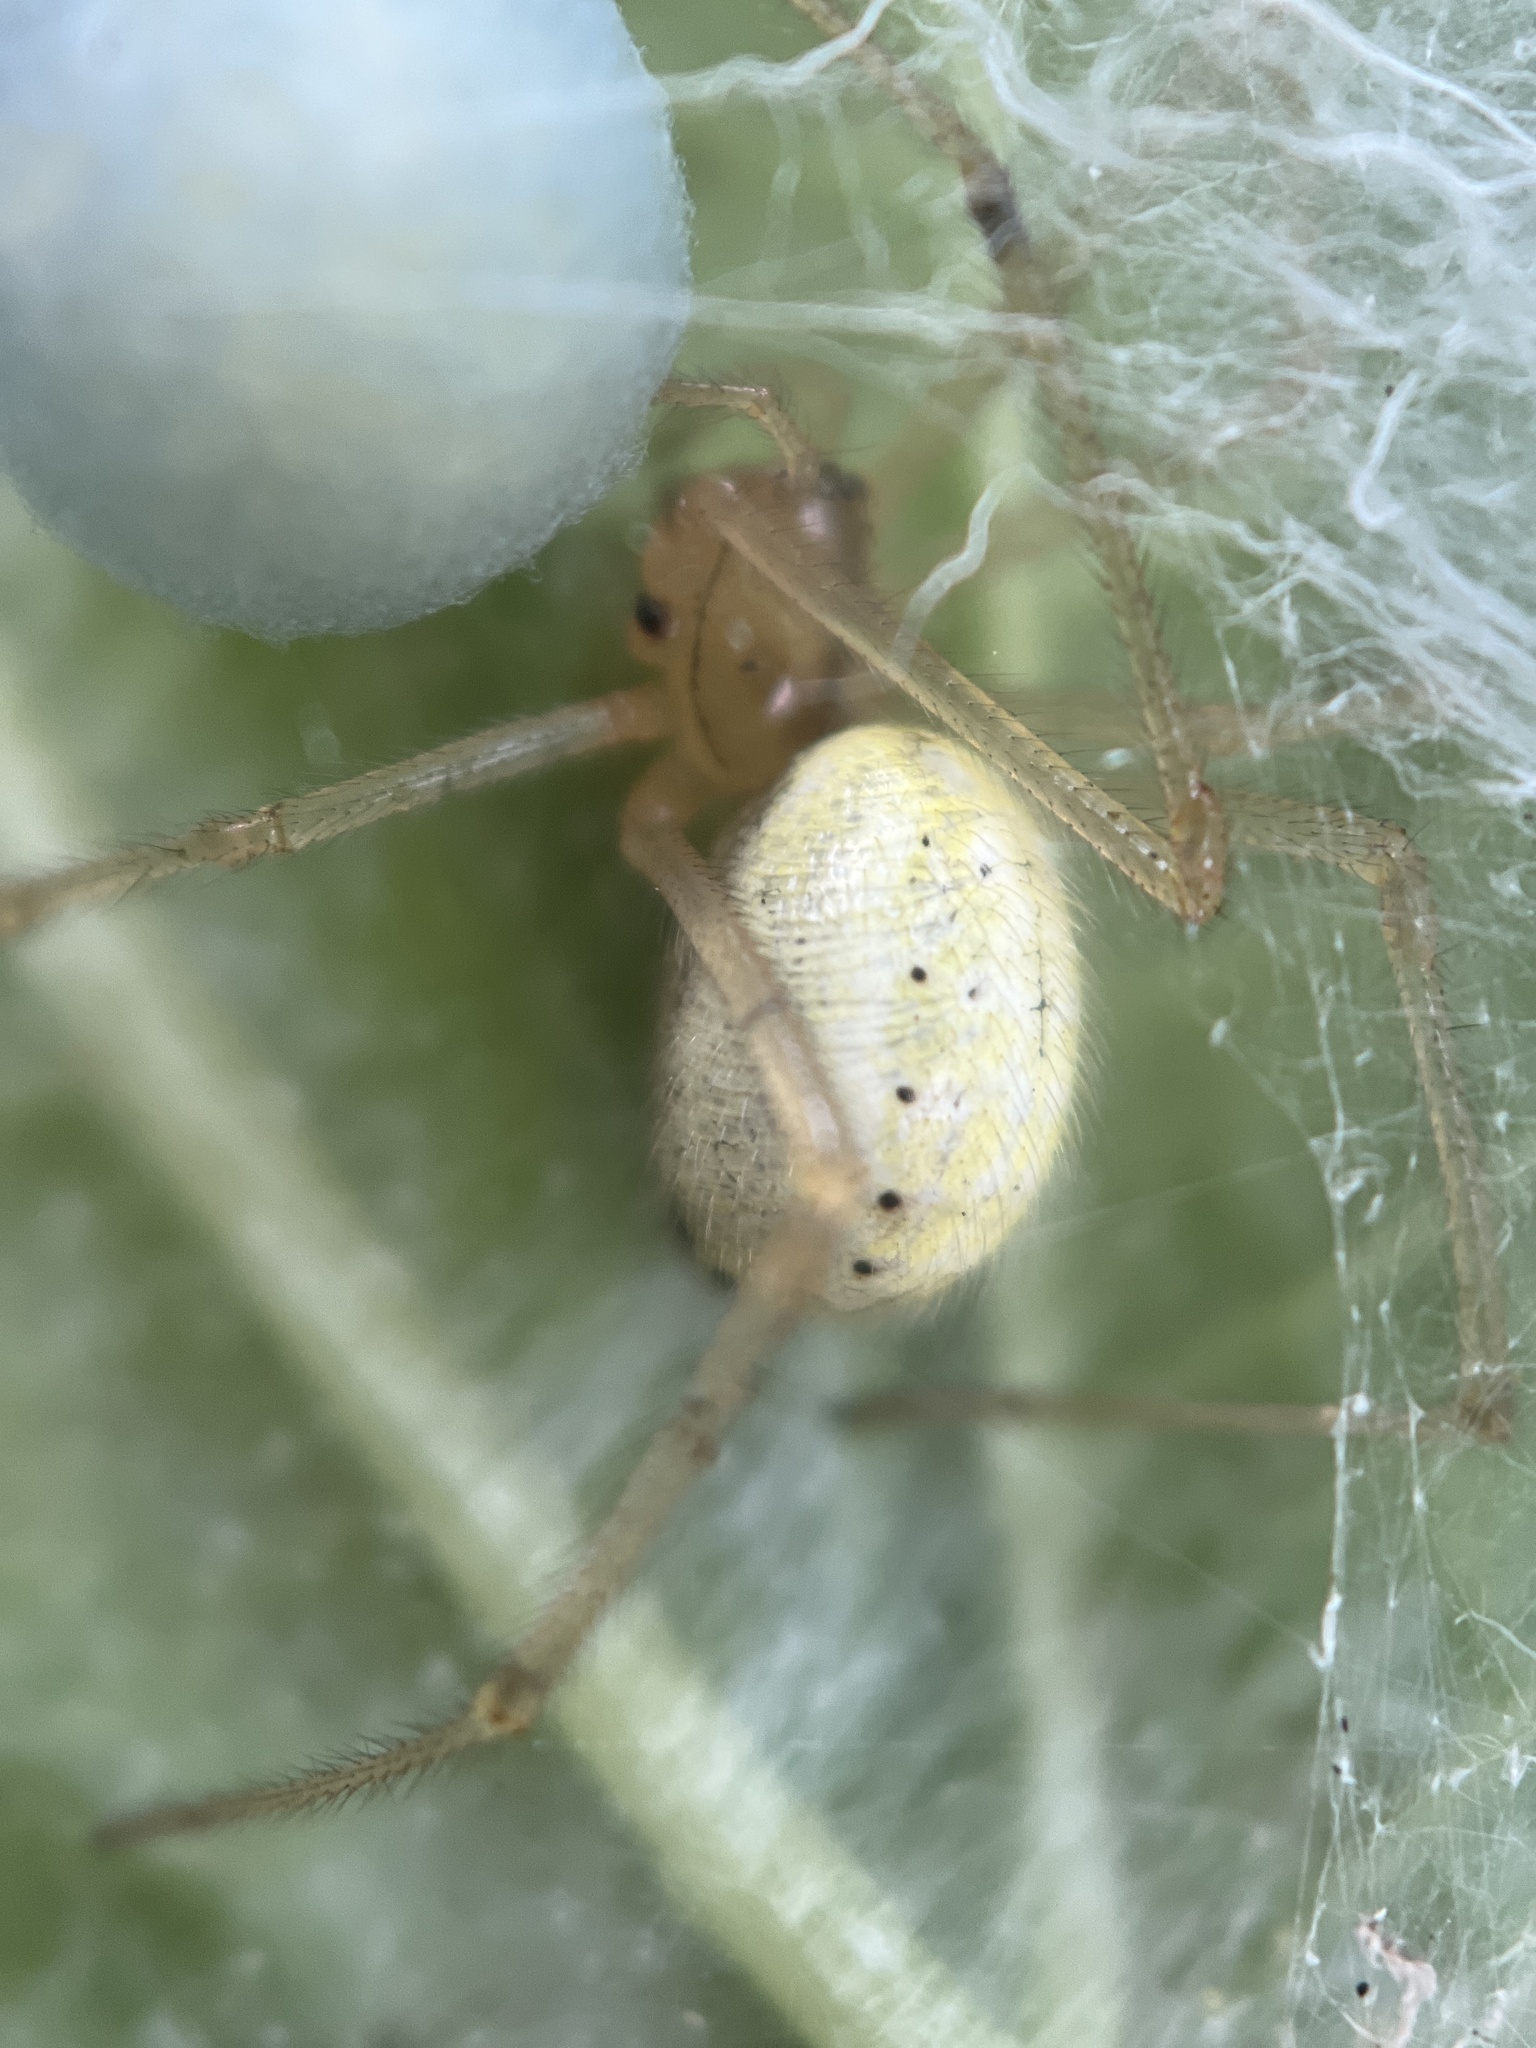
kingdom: Animalia
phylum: Arthropoda
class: Arachnida
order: Araneae
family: Theridiidae
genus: Enoplognatha
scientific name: Enoplognatha ovata
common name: Common candy-striped spider
